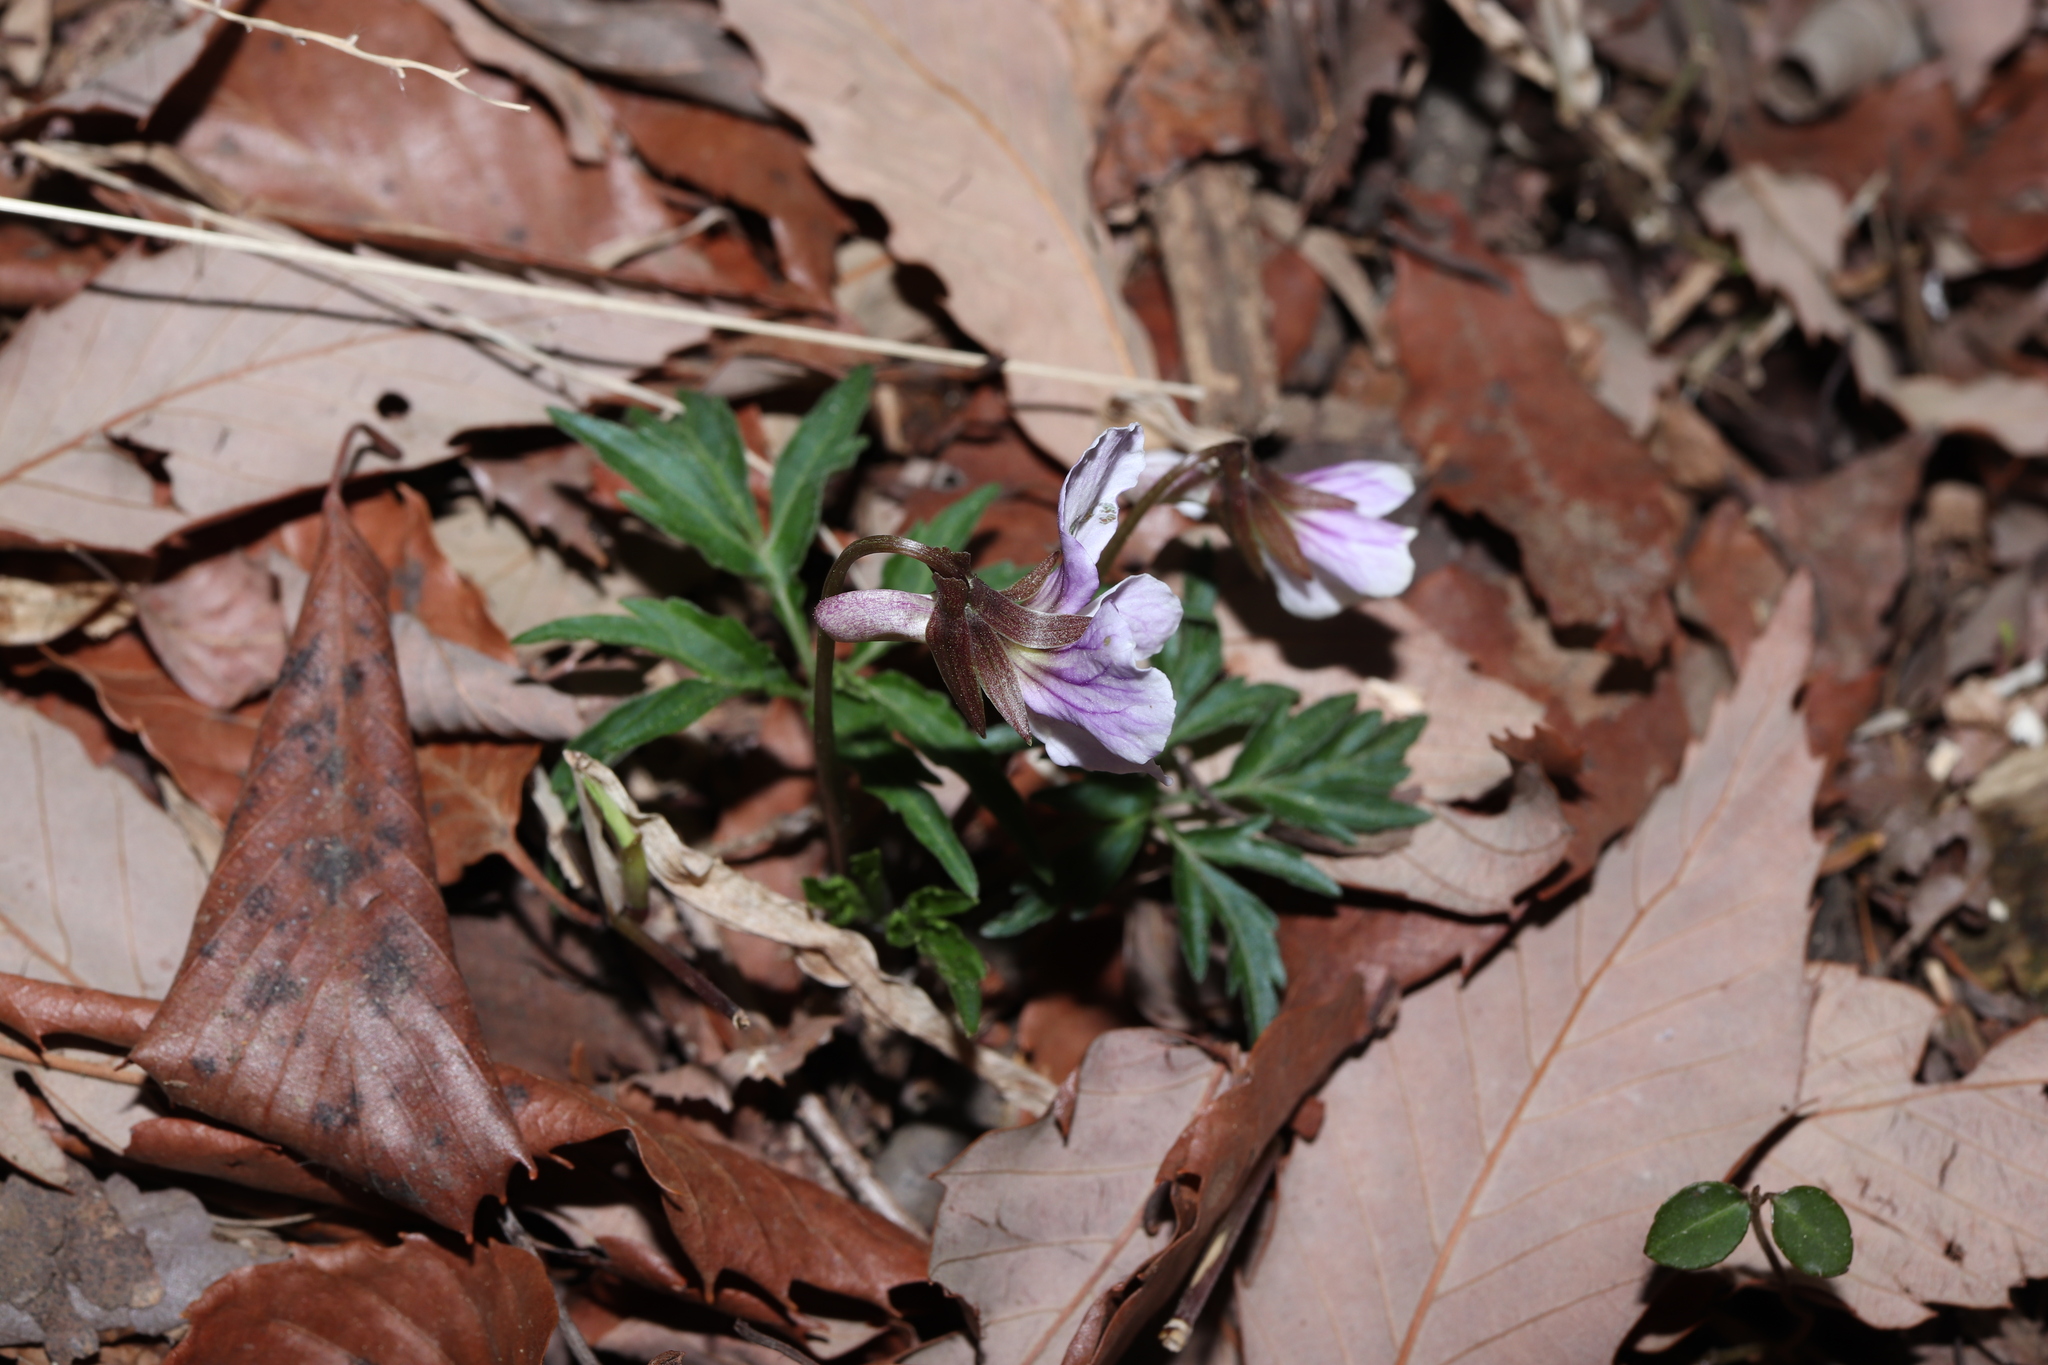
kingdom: Plantae
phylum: Tracheophyta
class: Magnoliopsida
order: Malpighiales
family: Violaceae
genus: Viola
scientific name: Viola albida
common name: Korean violet
